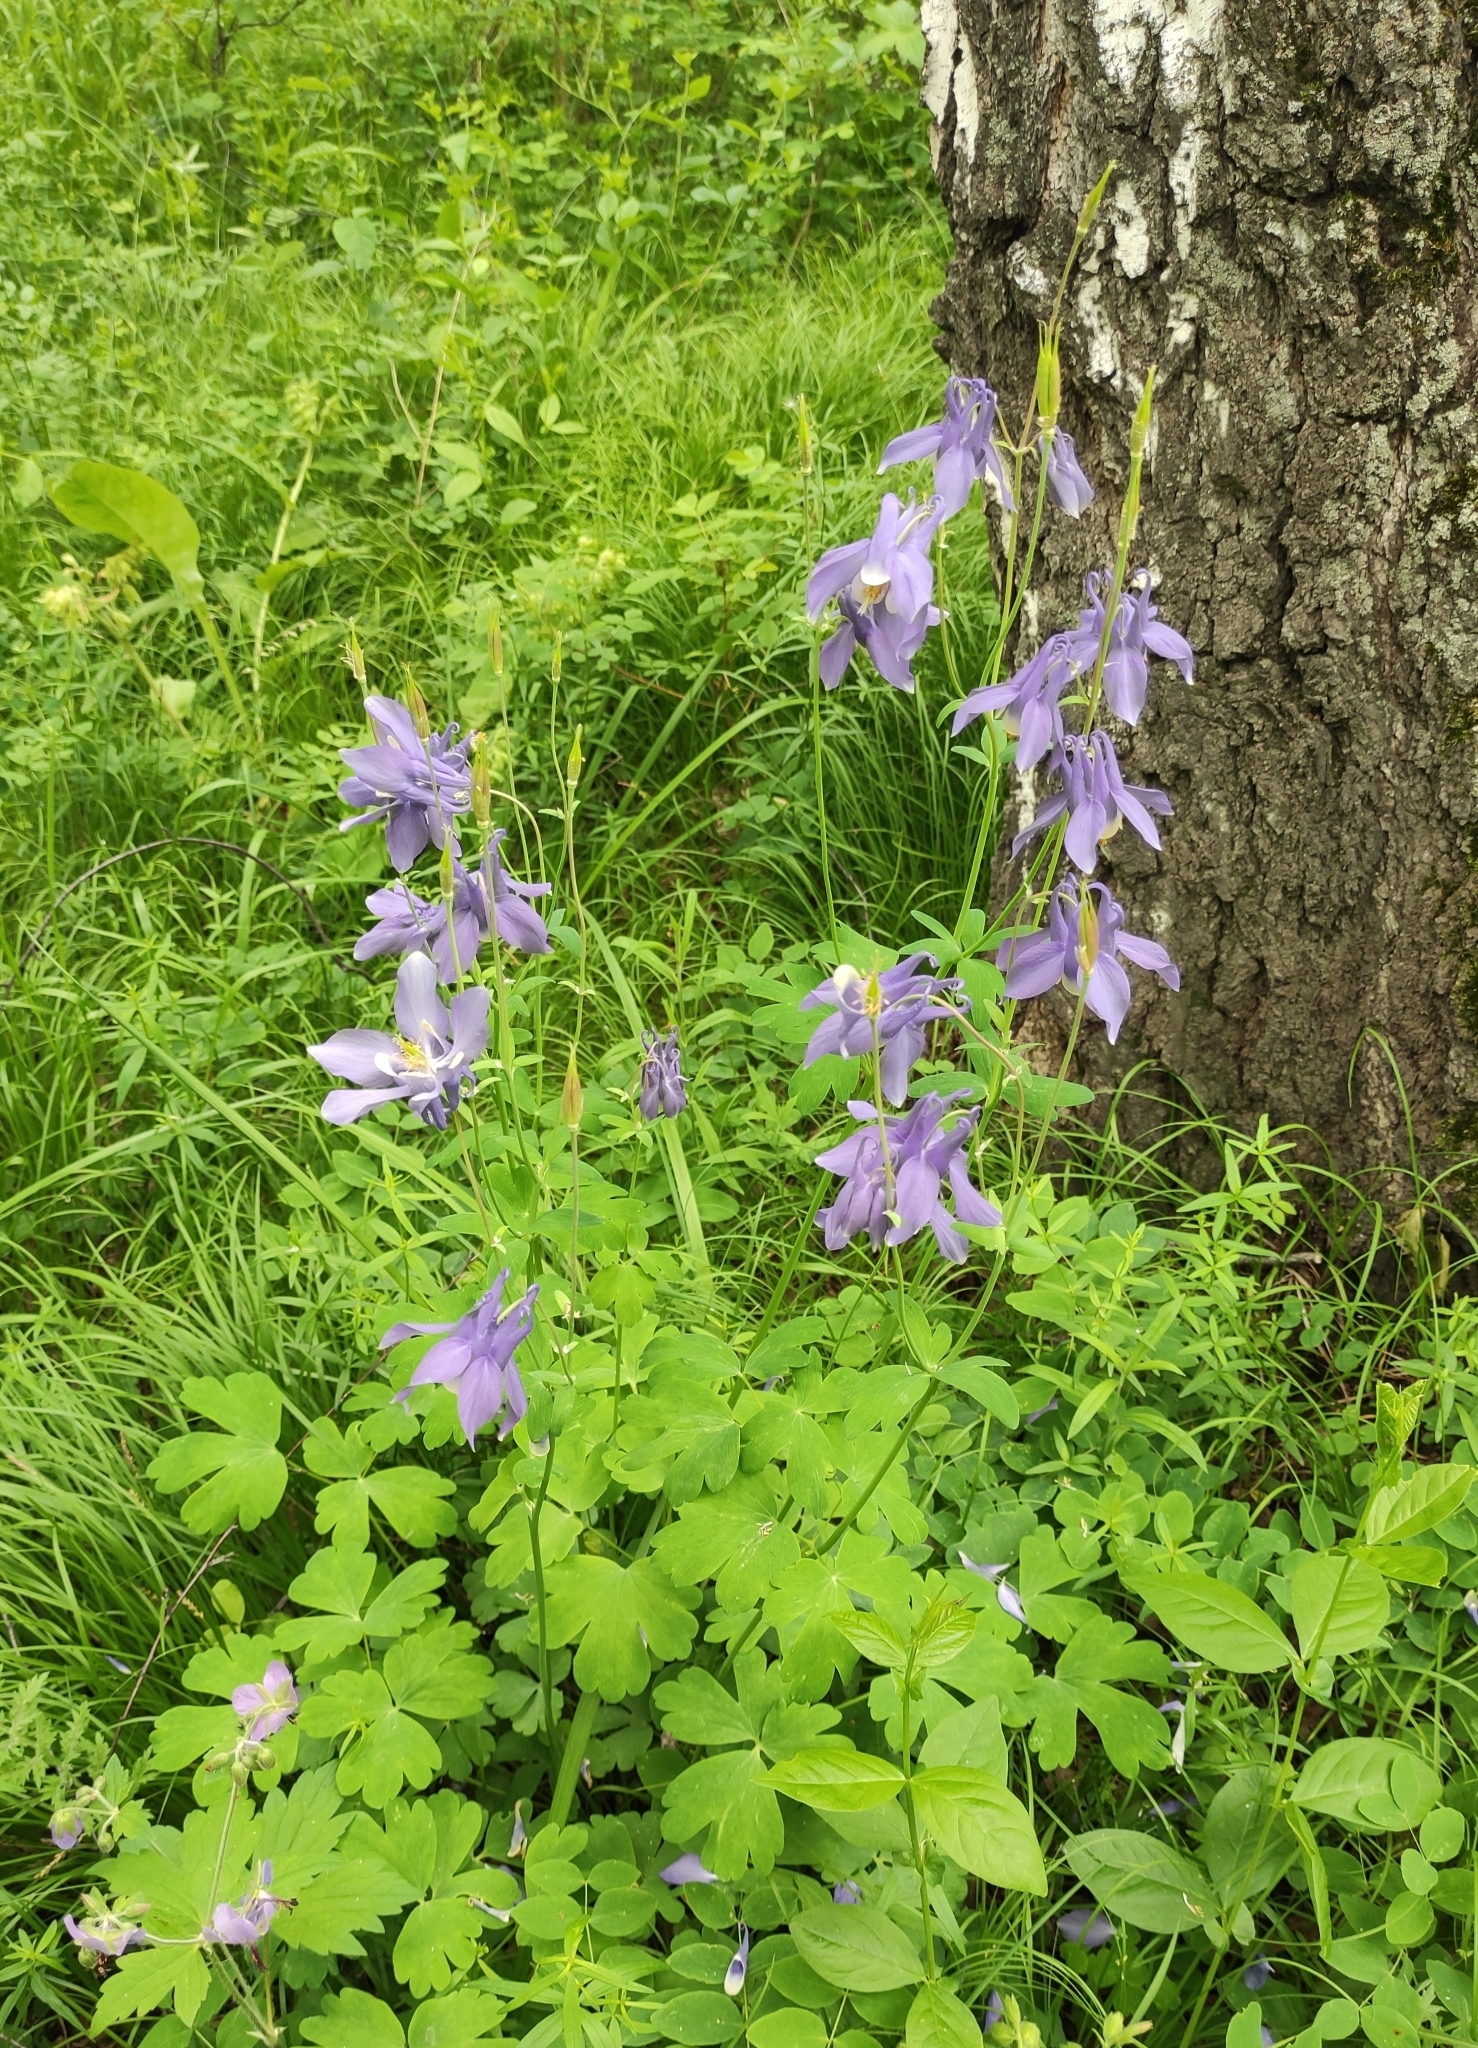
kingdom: Plantae
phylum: Tracheophyta
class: Magnoliopsida
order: Ranunculales
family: Ranunculaceae
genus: Aquilegia
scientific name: Aquilegia sibirica
